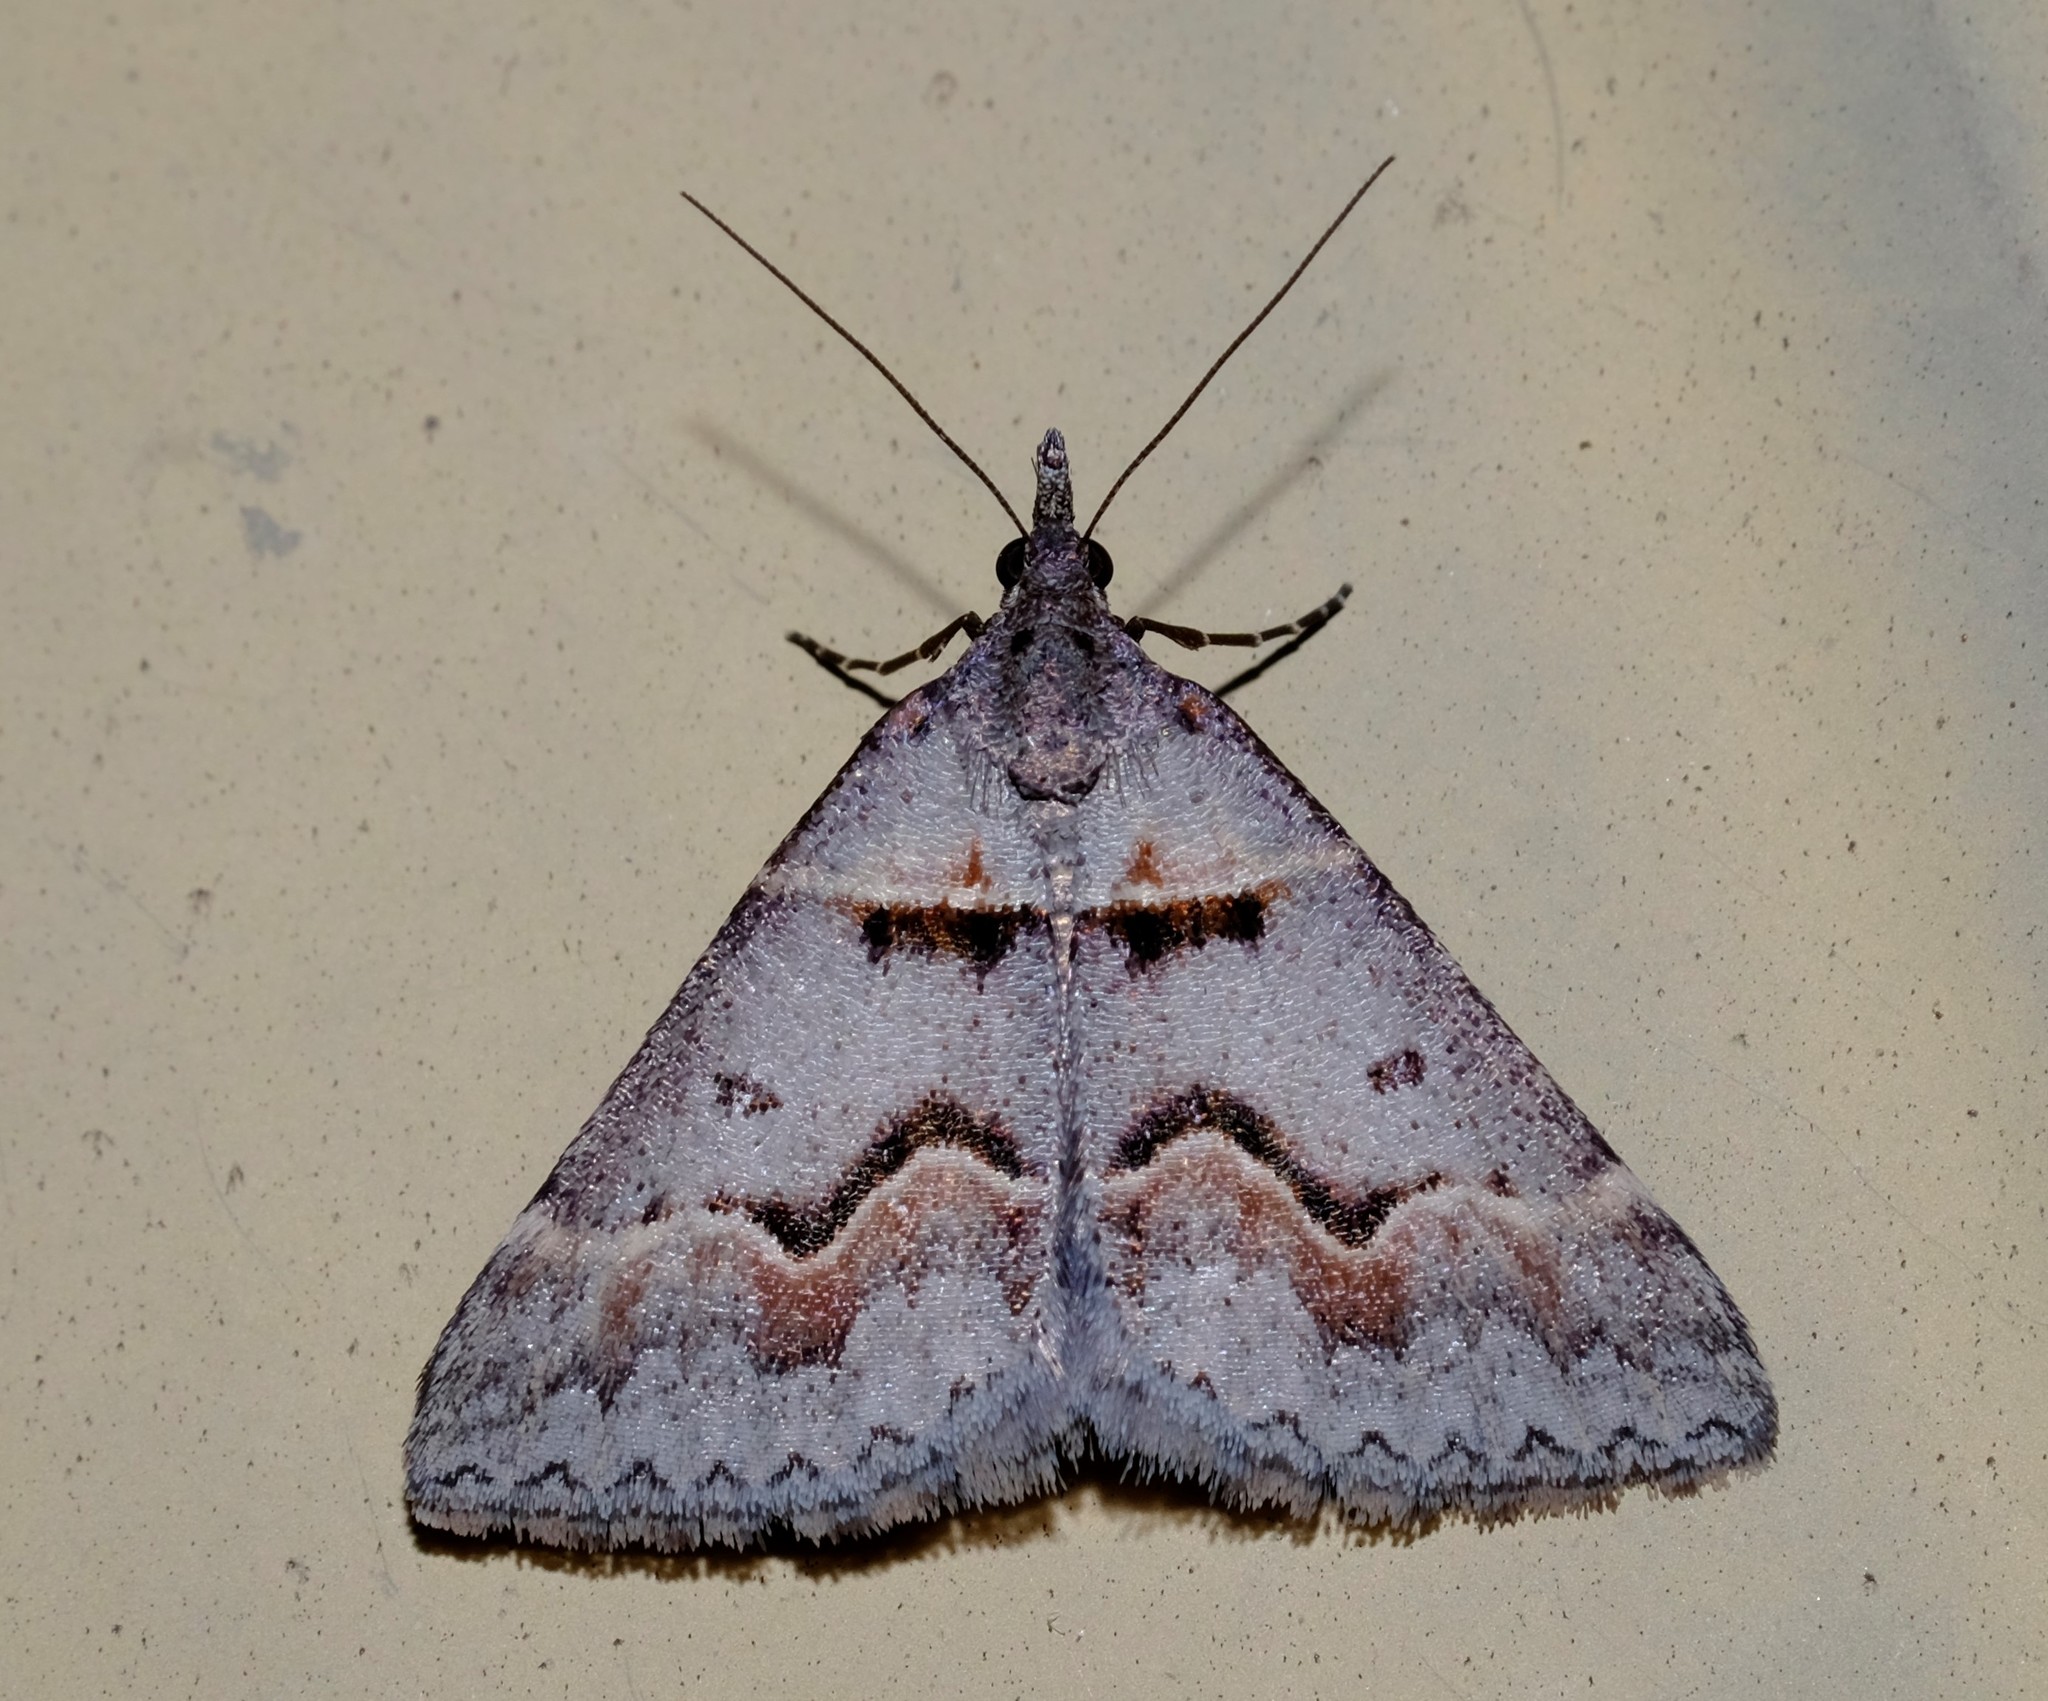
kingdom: Animalia
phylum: Arthropoda
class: Insecta
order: Lepidoptera
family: Geometridae
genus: Dichromodes
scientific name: Dichromodes atrosignata
